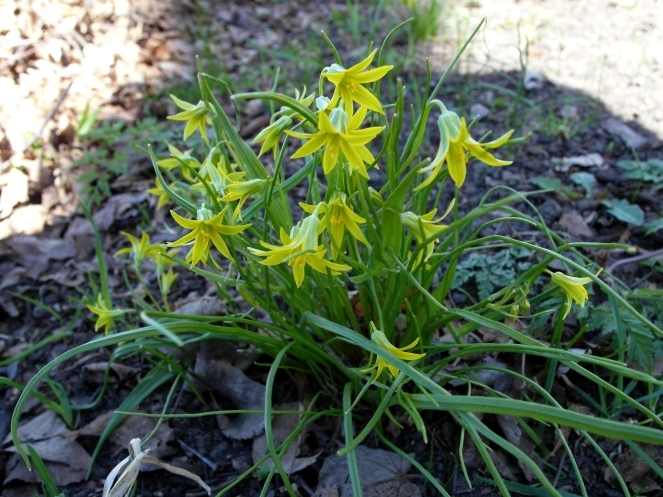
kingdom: Plantae
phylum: Tracheophyta
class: Liliopsida
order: Liliales
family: Liliaceae
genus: Gagea
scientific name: Gagea minima
